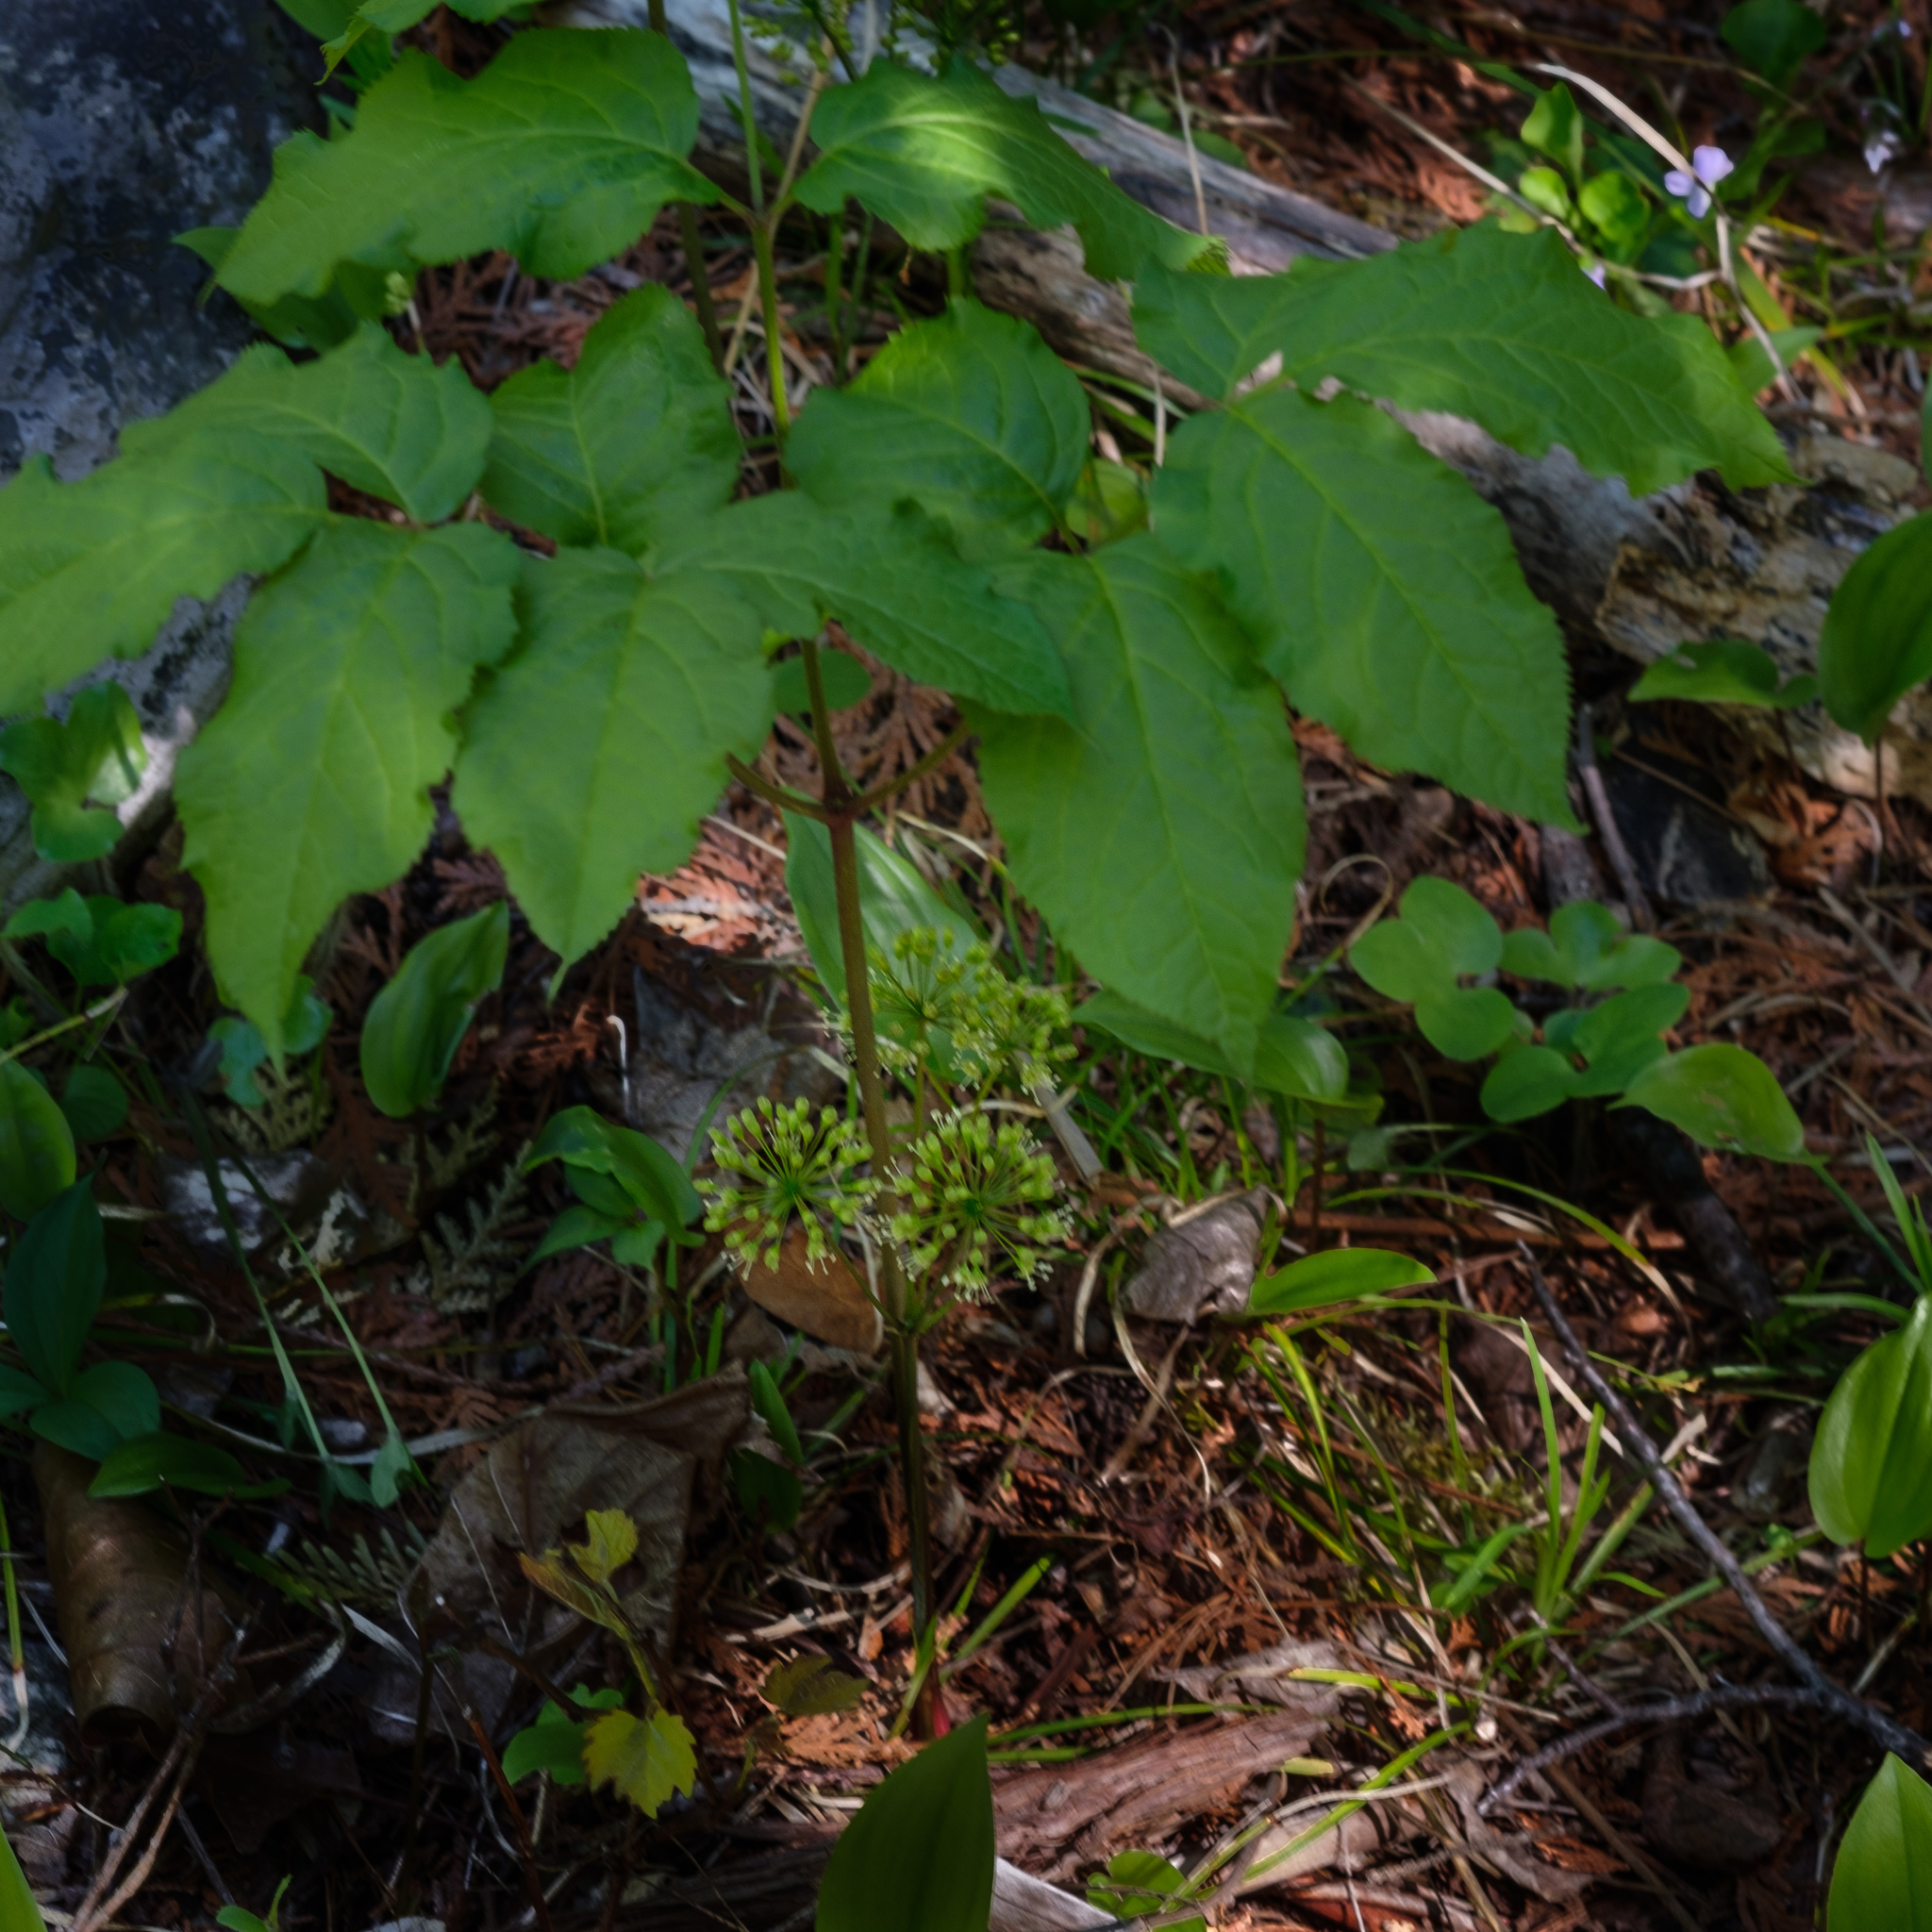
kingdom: Plantae
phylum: Tracheophyta
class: Magnoliopsida
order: Apiales
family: Araliaceae
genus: Aralia
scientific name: Aralia nudicaulis
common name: Wild sarsaparilla
